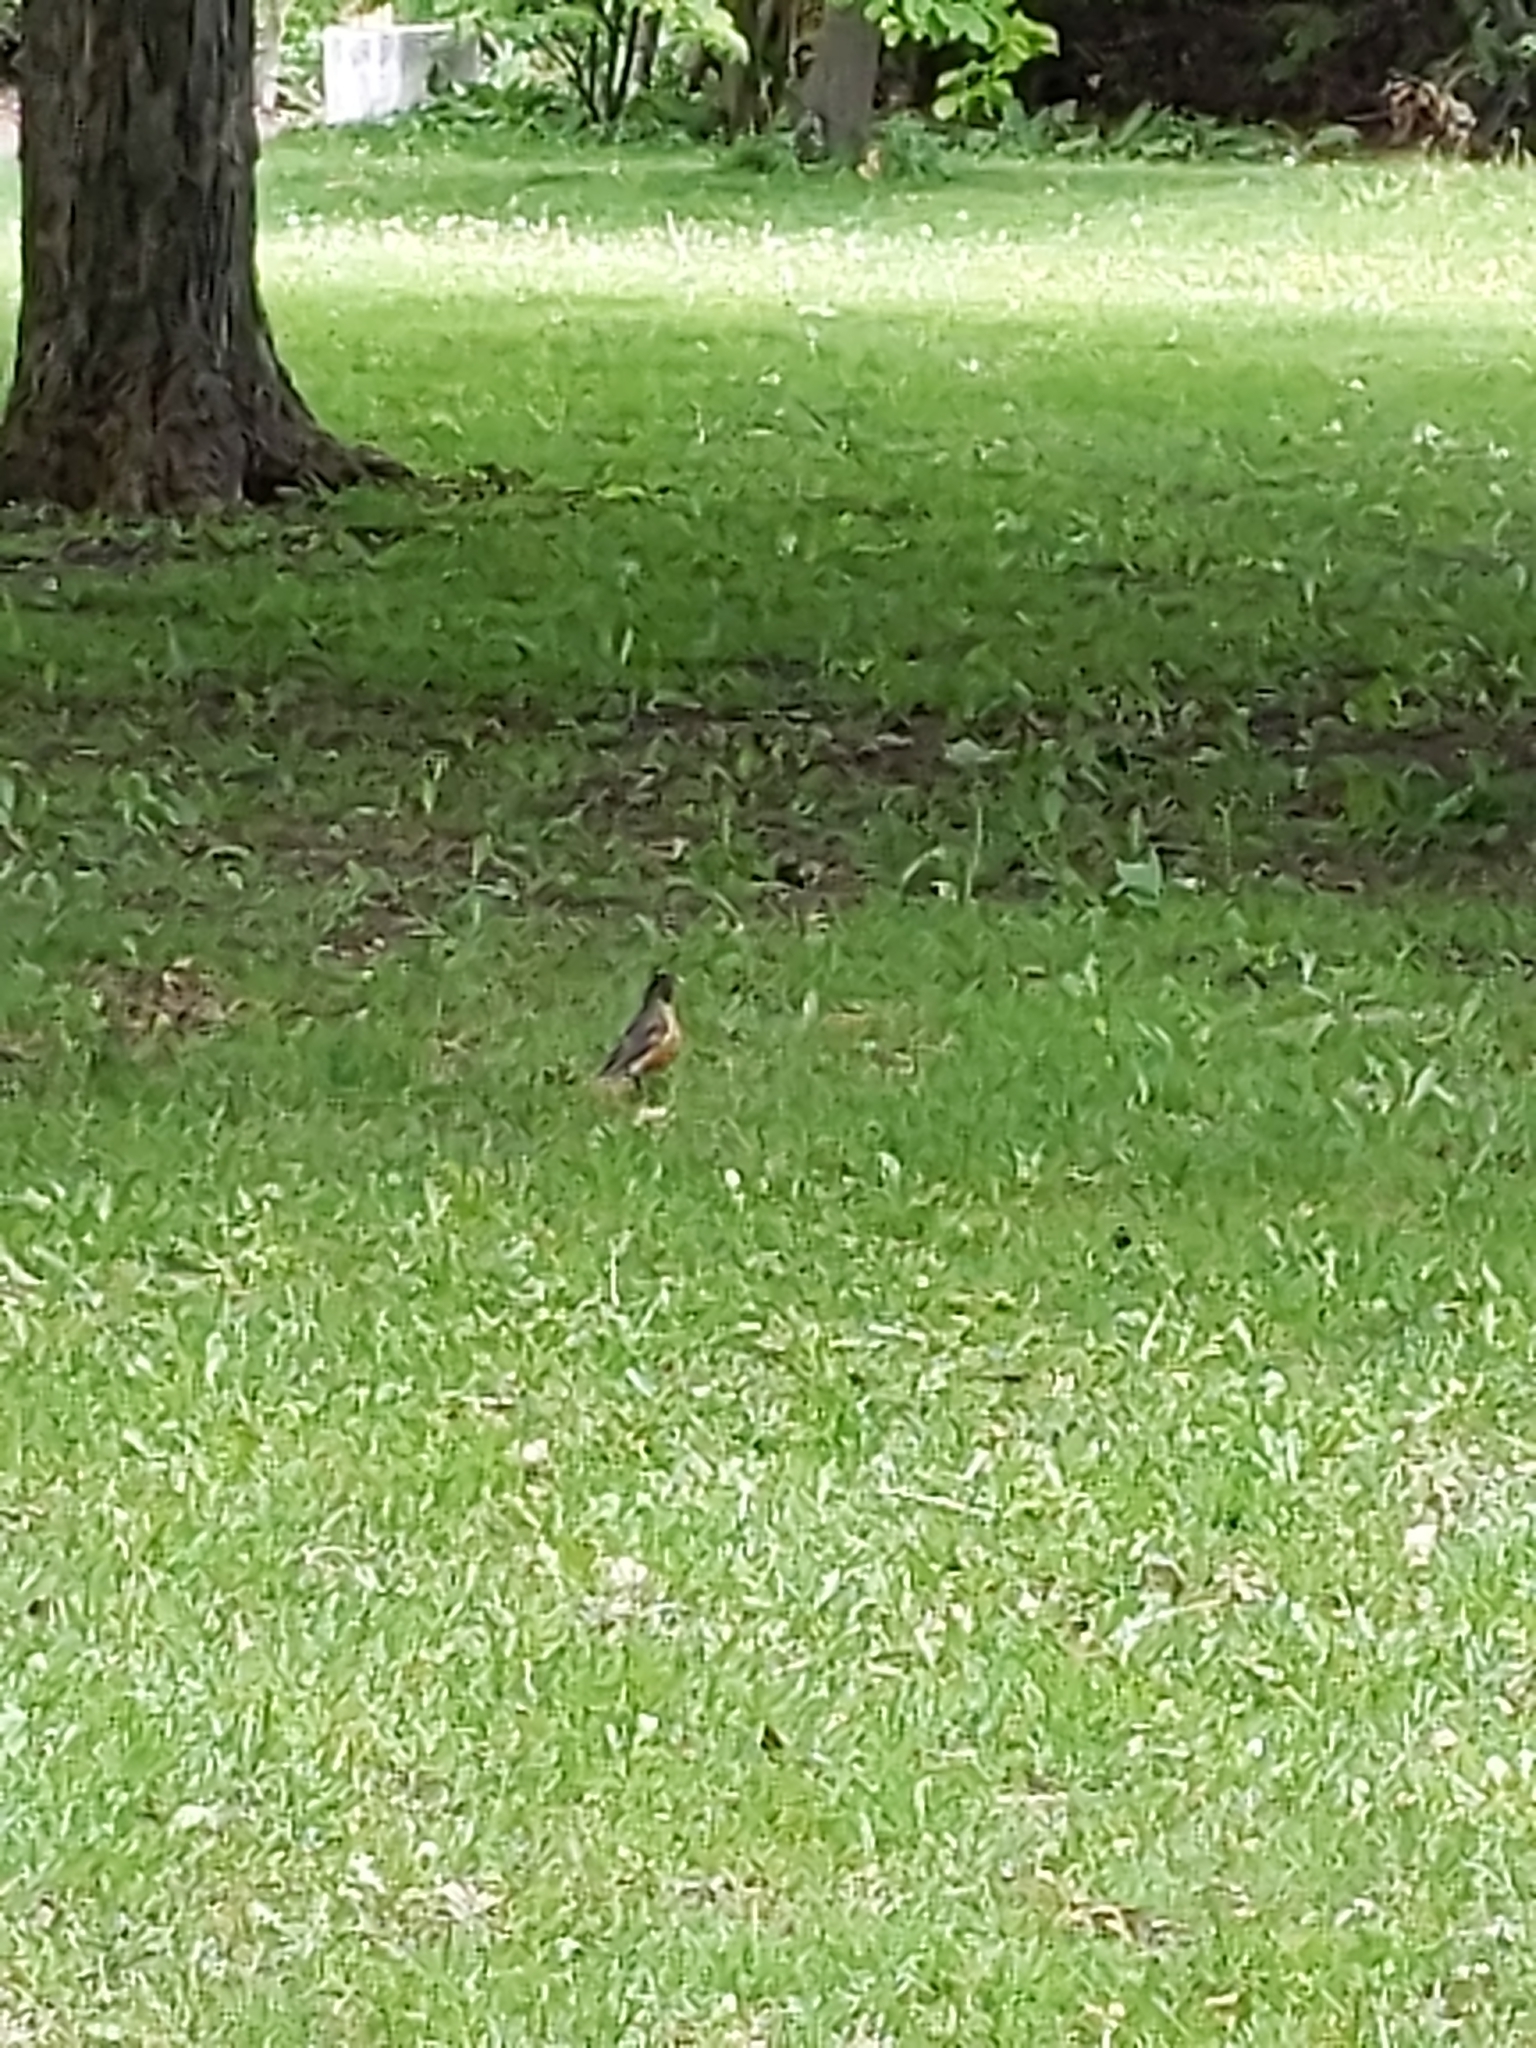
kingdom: Animalia
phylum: Chordata
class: Aves
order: Passeriformes
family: Turdidae
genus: Turdus
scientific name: Turdus migratorius
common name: American robin
